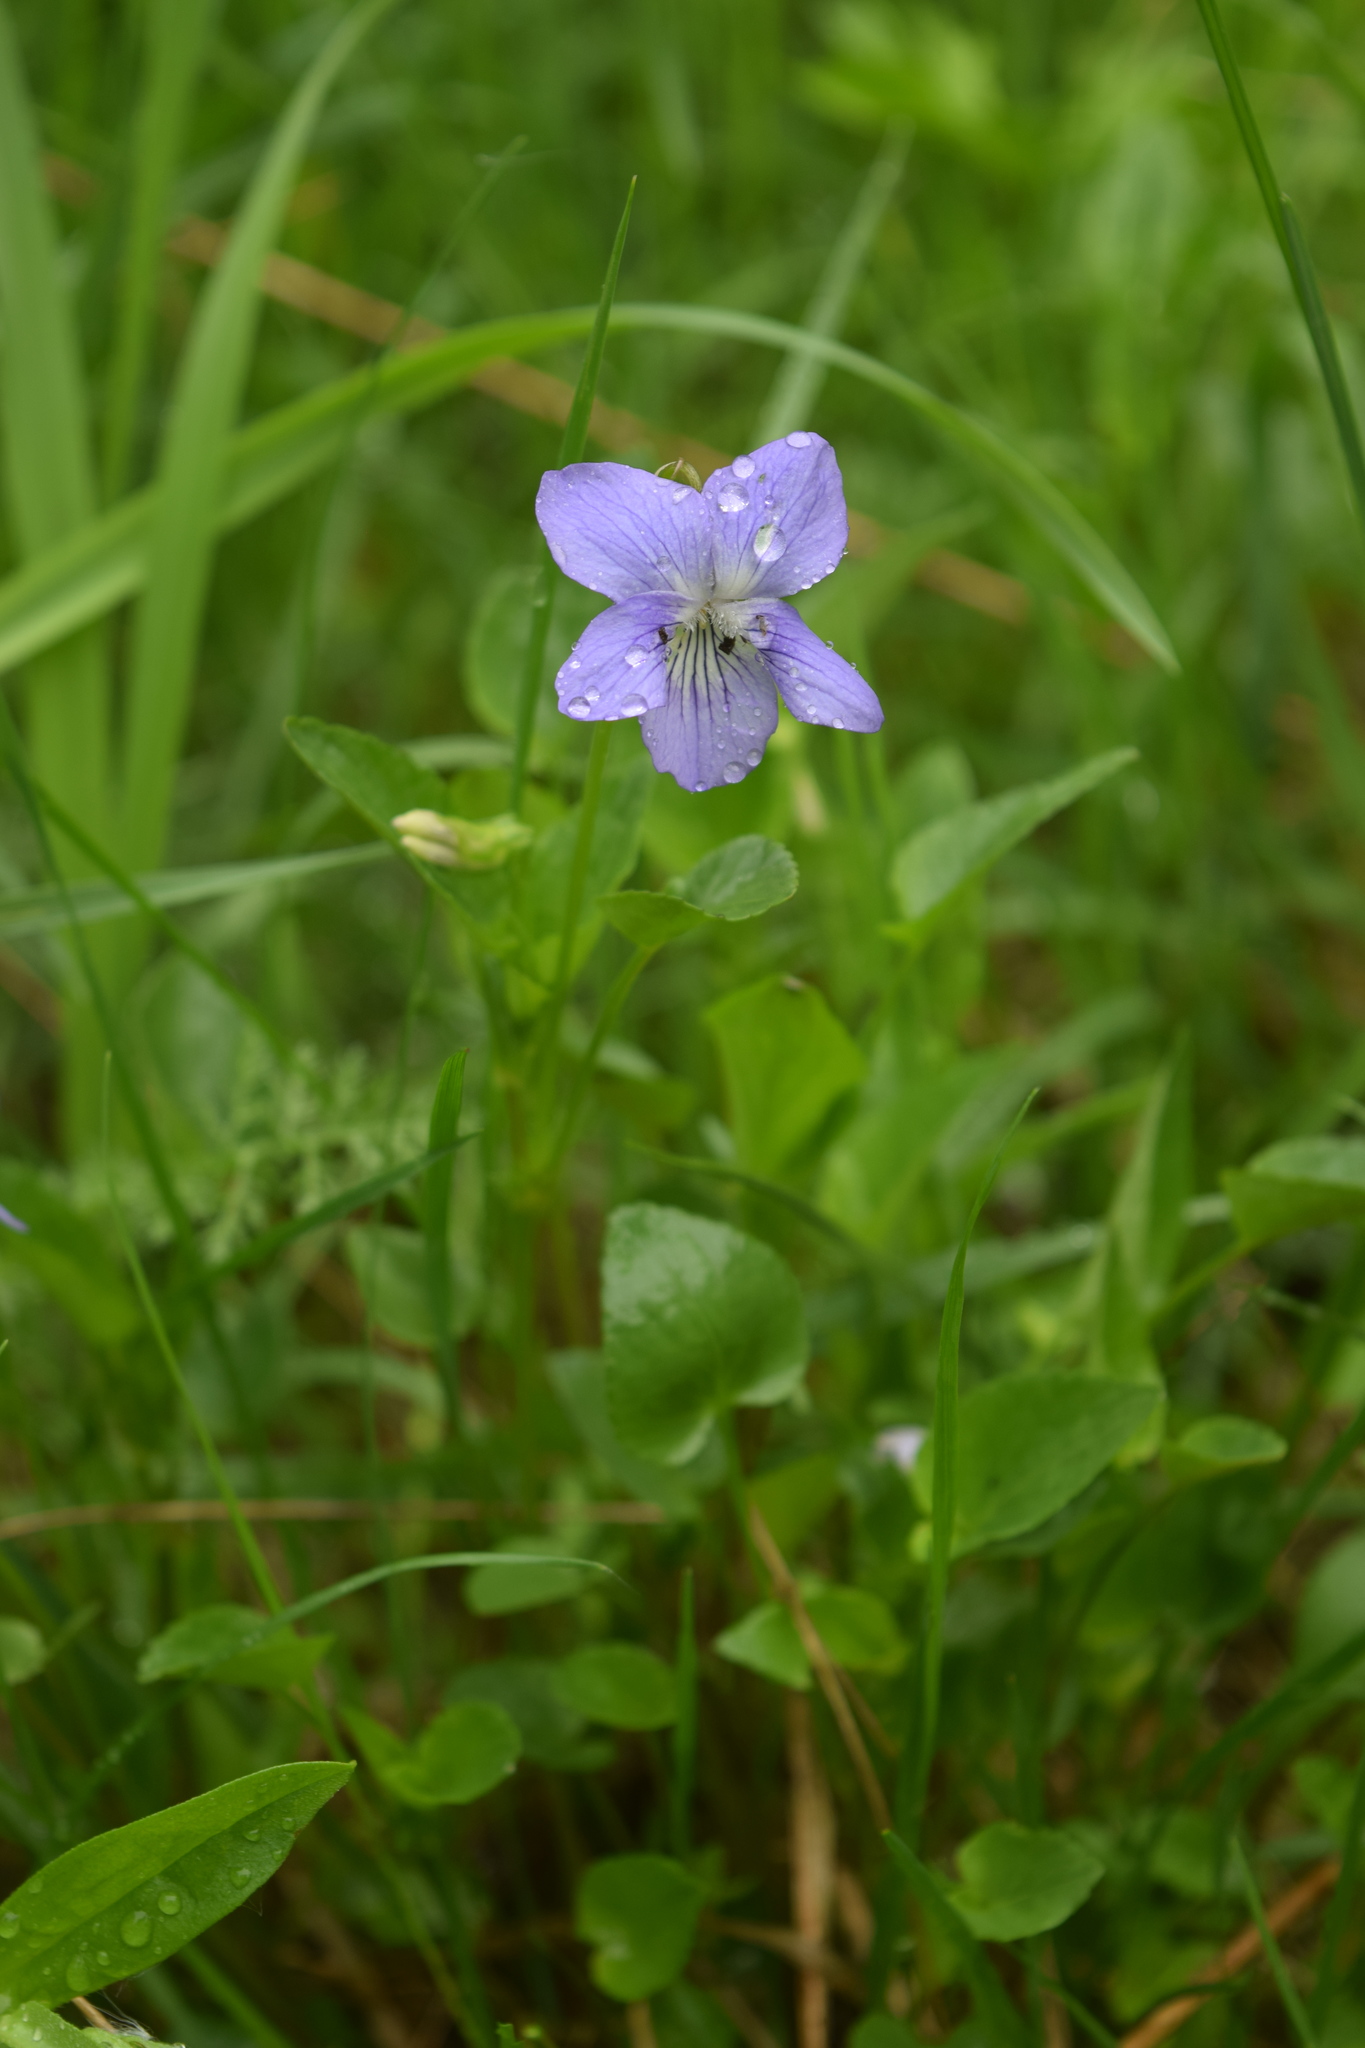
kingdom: Plantae
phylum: Tracheophyta
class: Magnoliopsida
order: Malpighiales
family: Violaceae
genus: Viola
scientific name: Viola canina
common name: Heath dog-violet
